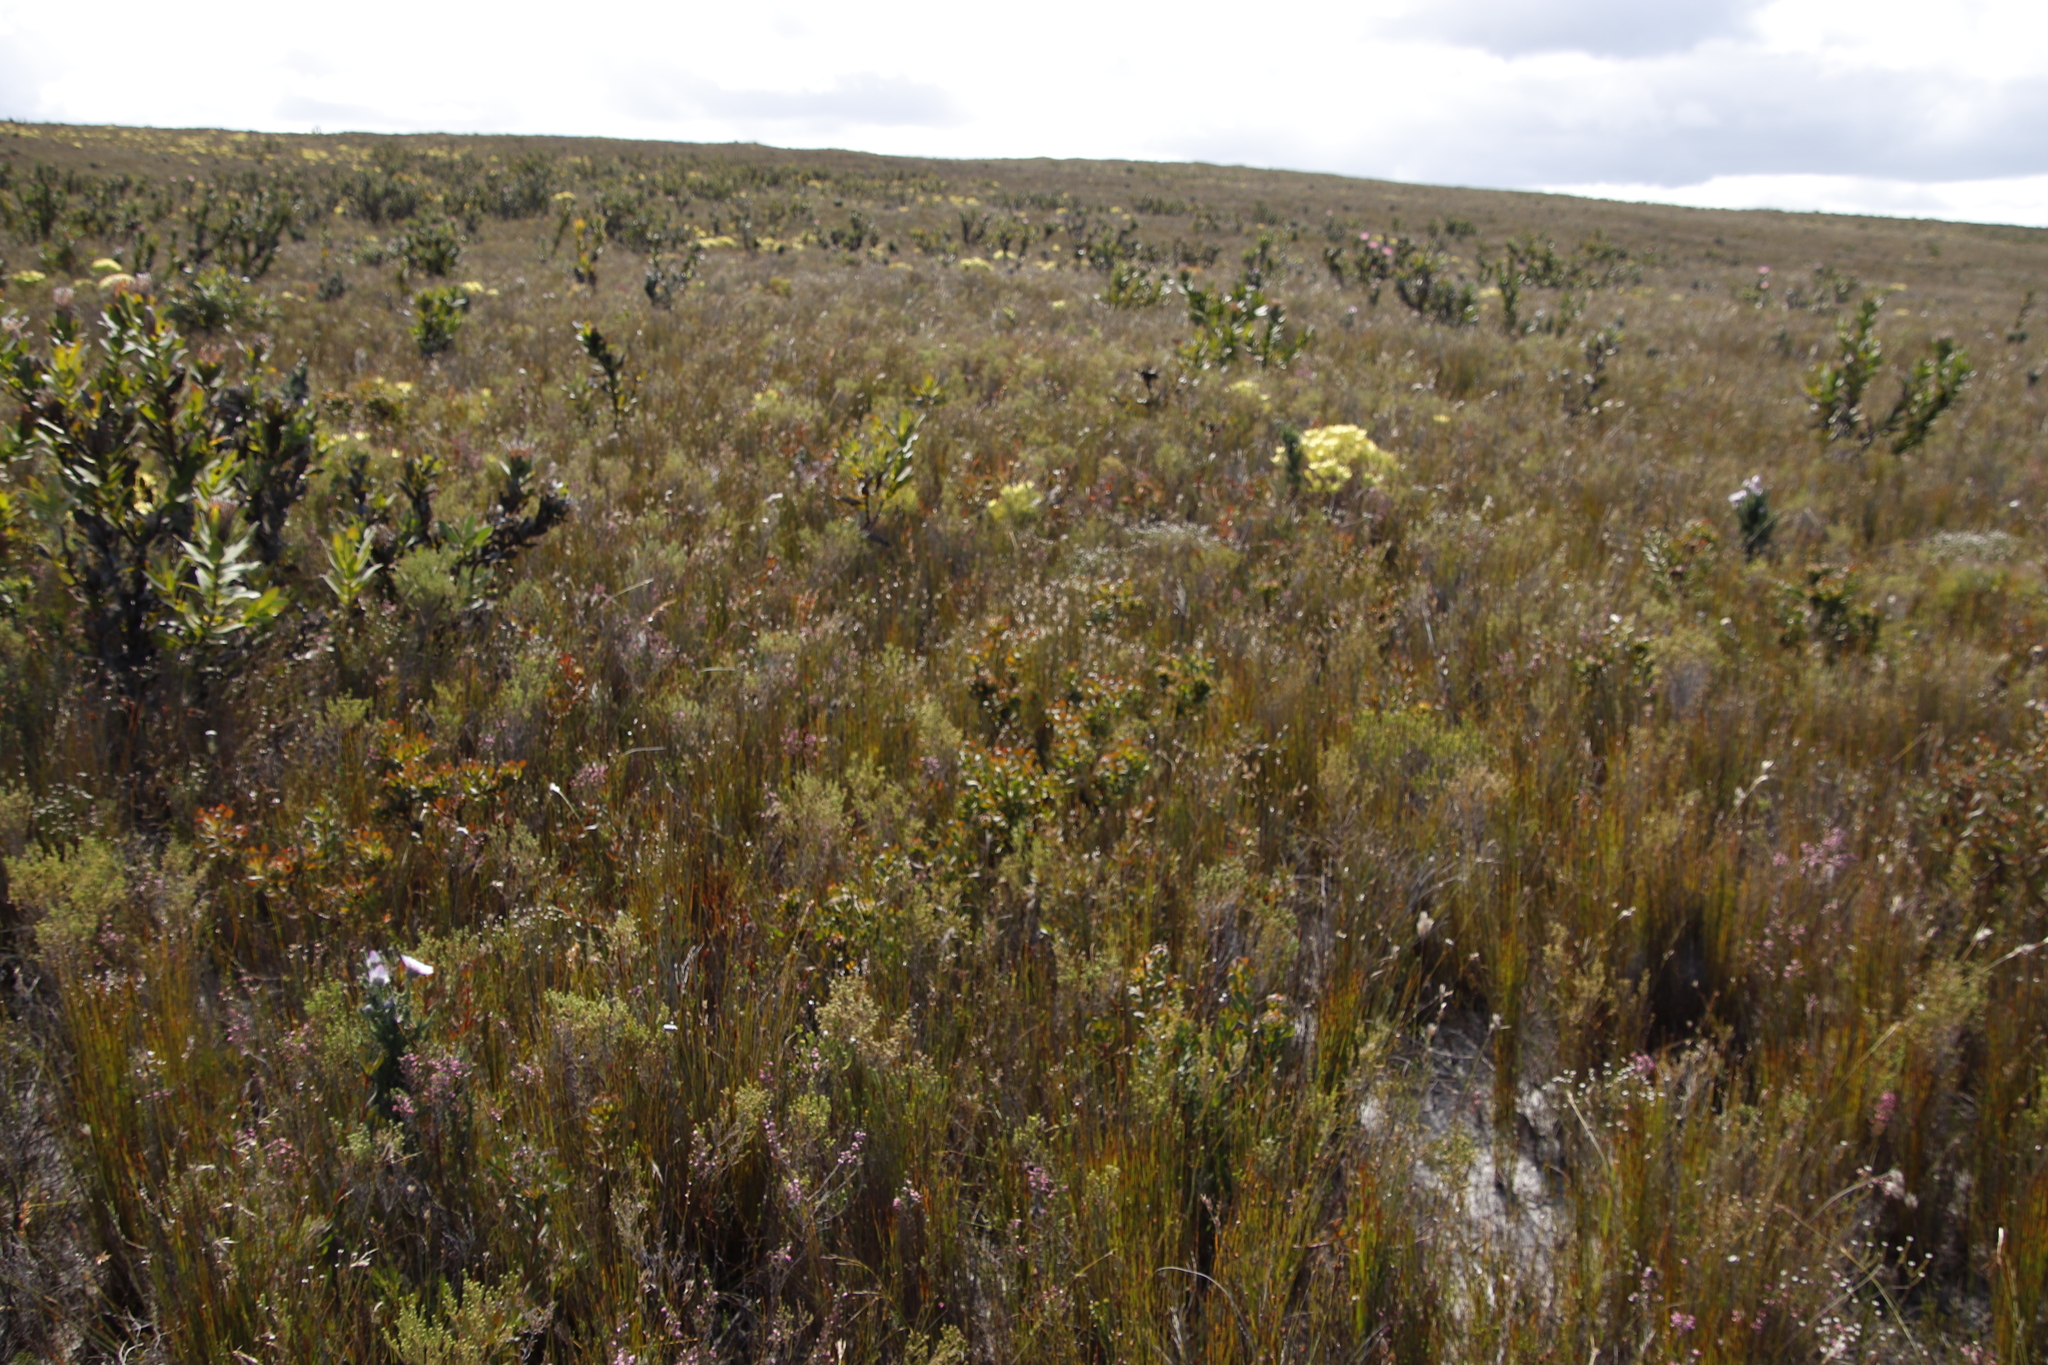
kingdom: Plantae
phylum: Tracheophyta
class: Magnoliopsida
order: Proteales
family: Proteaceae
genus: Aulax
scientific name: Aulax umbellata
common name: Broad-leaf featherbush
